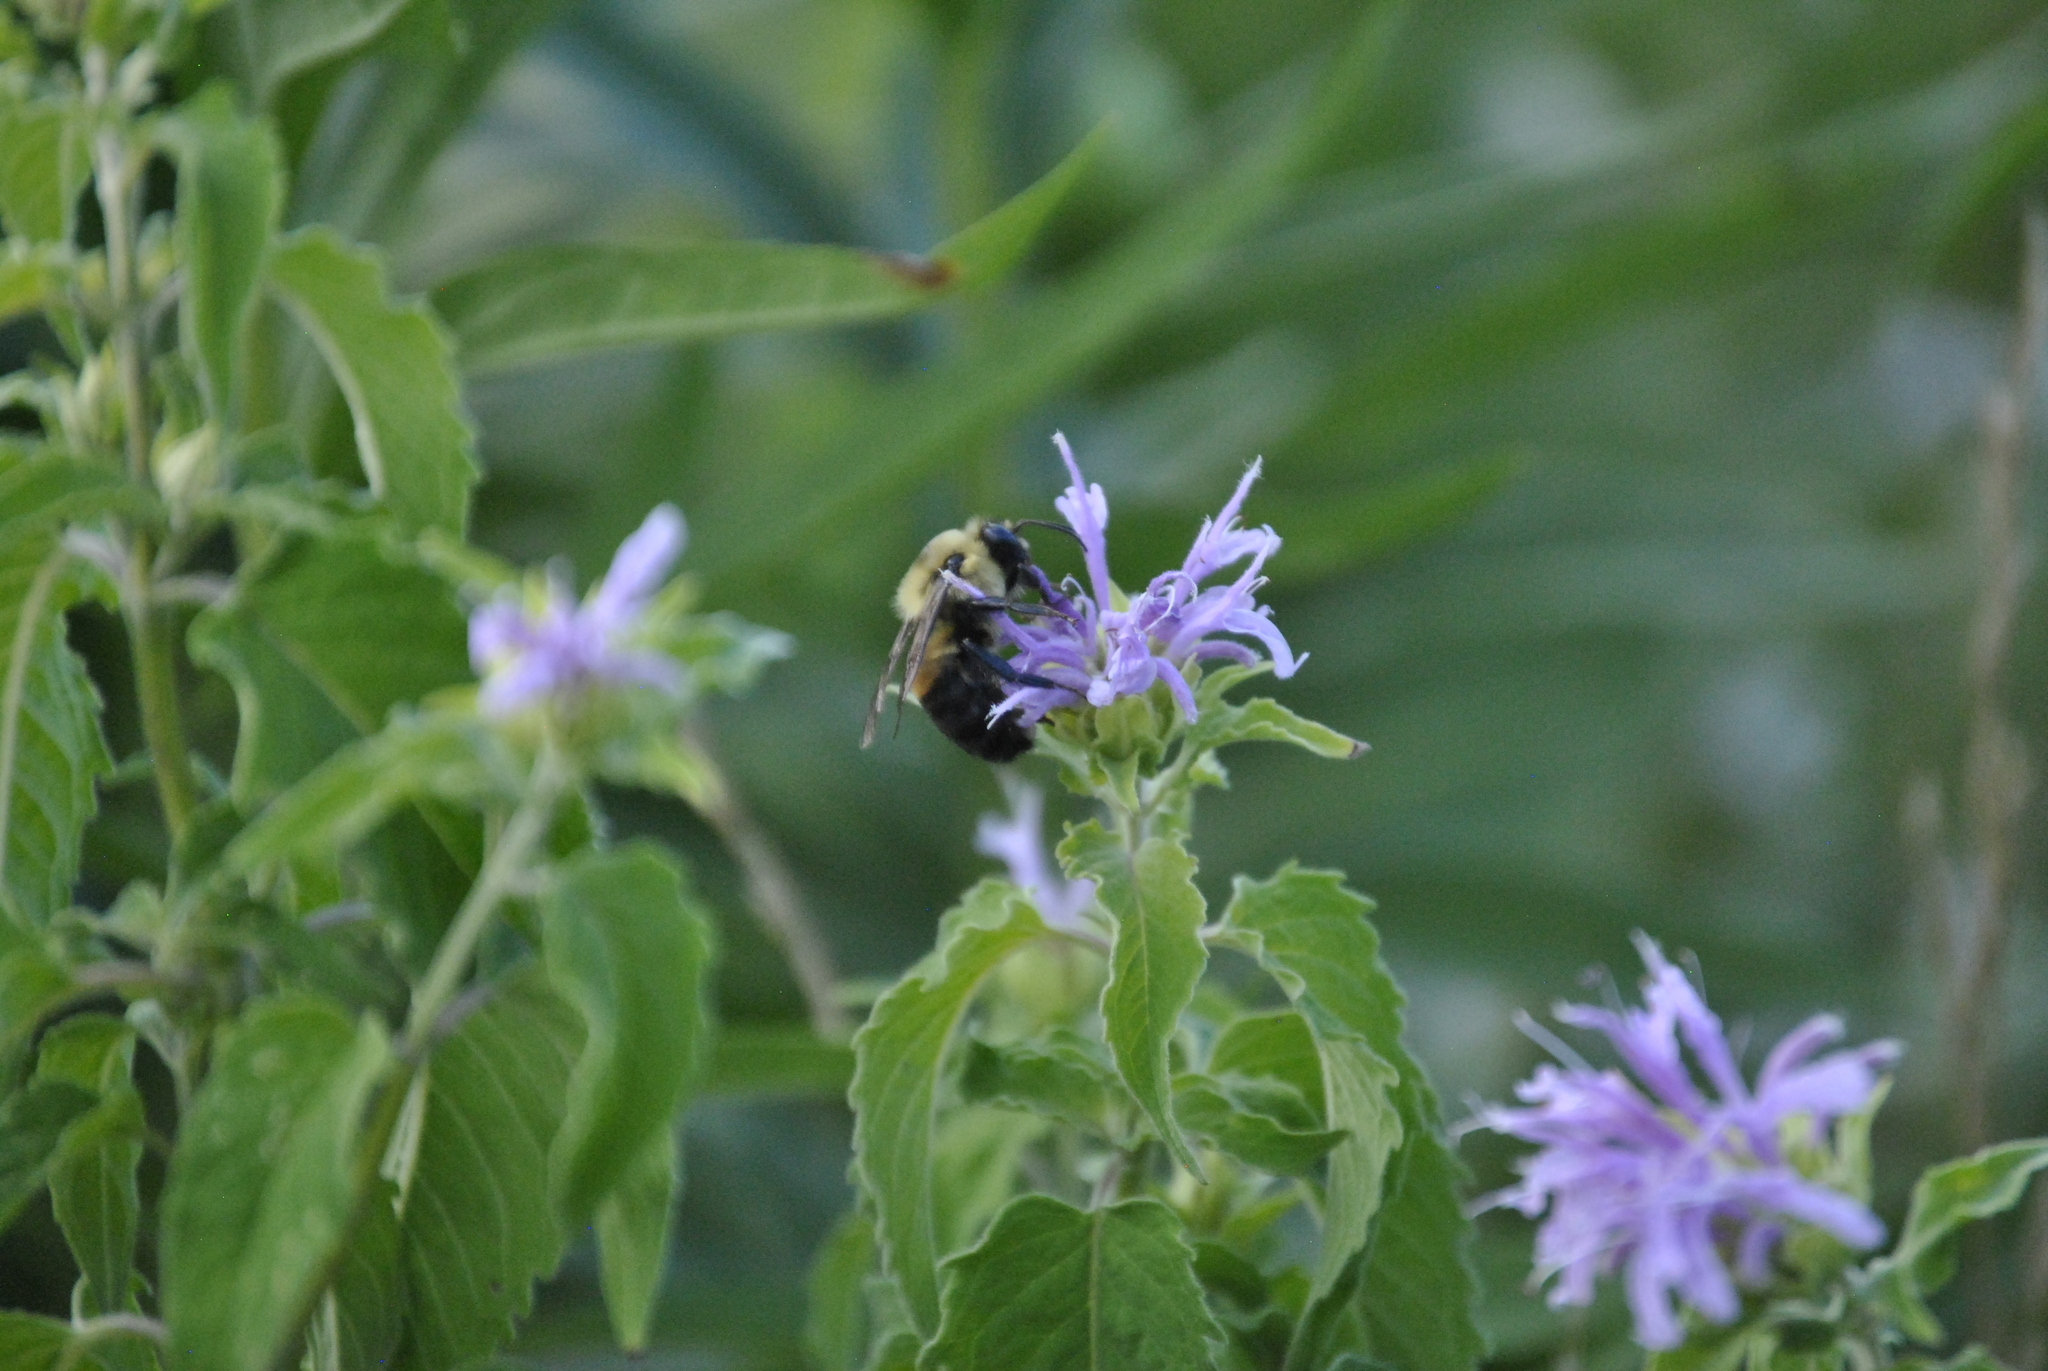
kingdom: Animalia
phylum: Arthropoda
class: Insecta
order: Hymenoptera
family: Apidae
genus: Bombus
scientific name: Bombus griseocollis
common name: Brown-belted bumble bee
